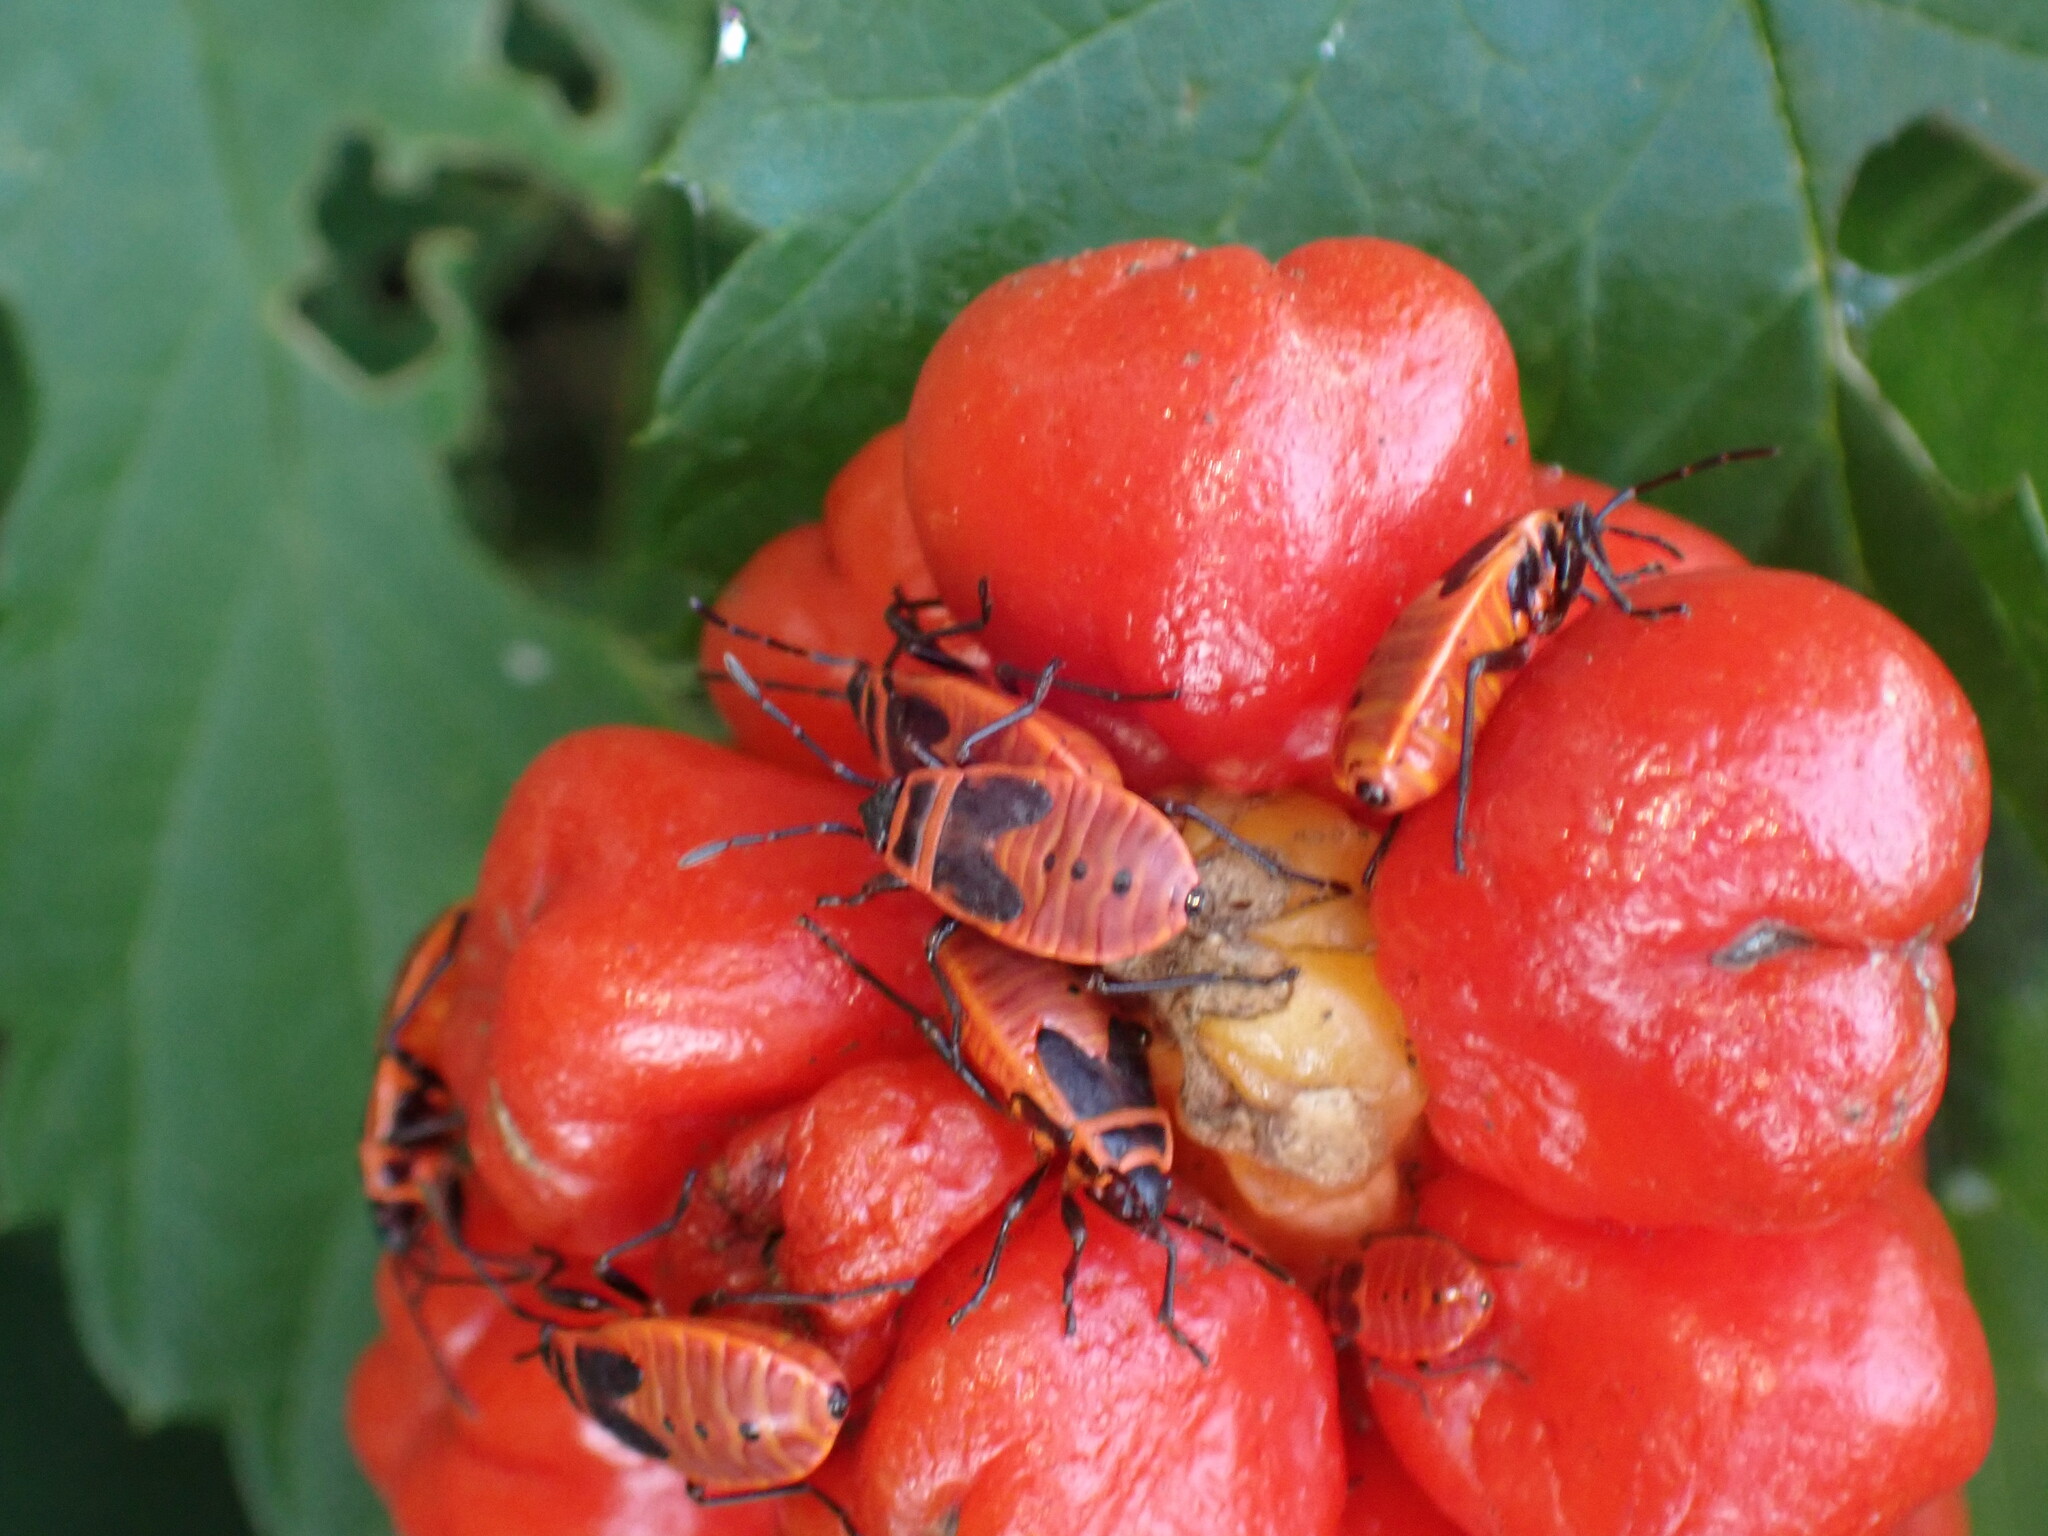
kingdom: Animalia
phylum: Arthropoda
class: Insecta
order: Hemiptera
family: Pyrrhocoridae
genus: Pyrrhocoris
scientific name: Pyrrhocoris apterus
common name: Firebug
